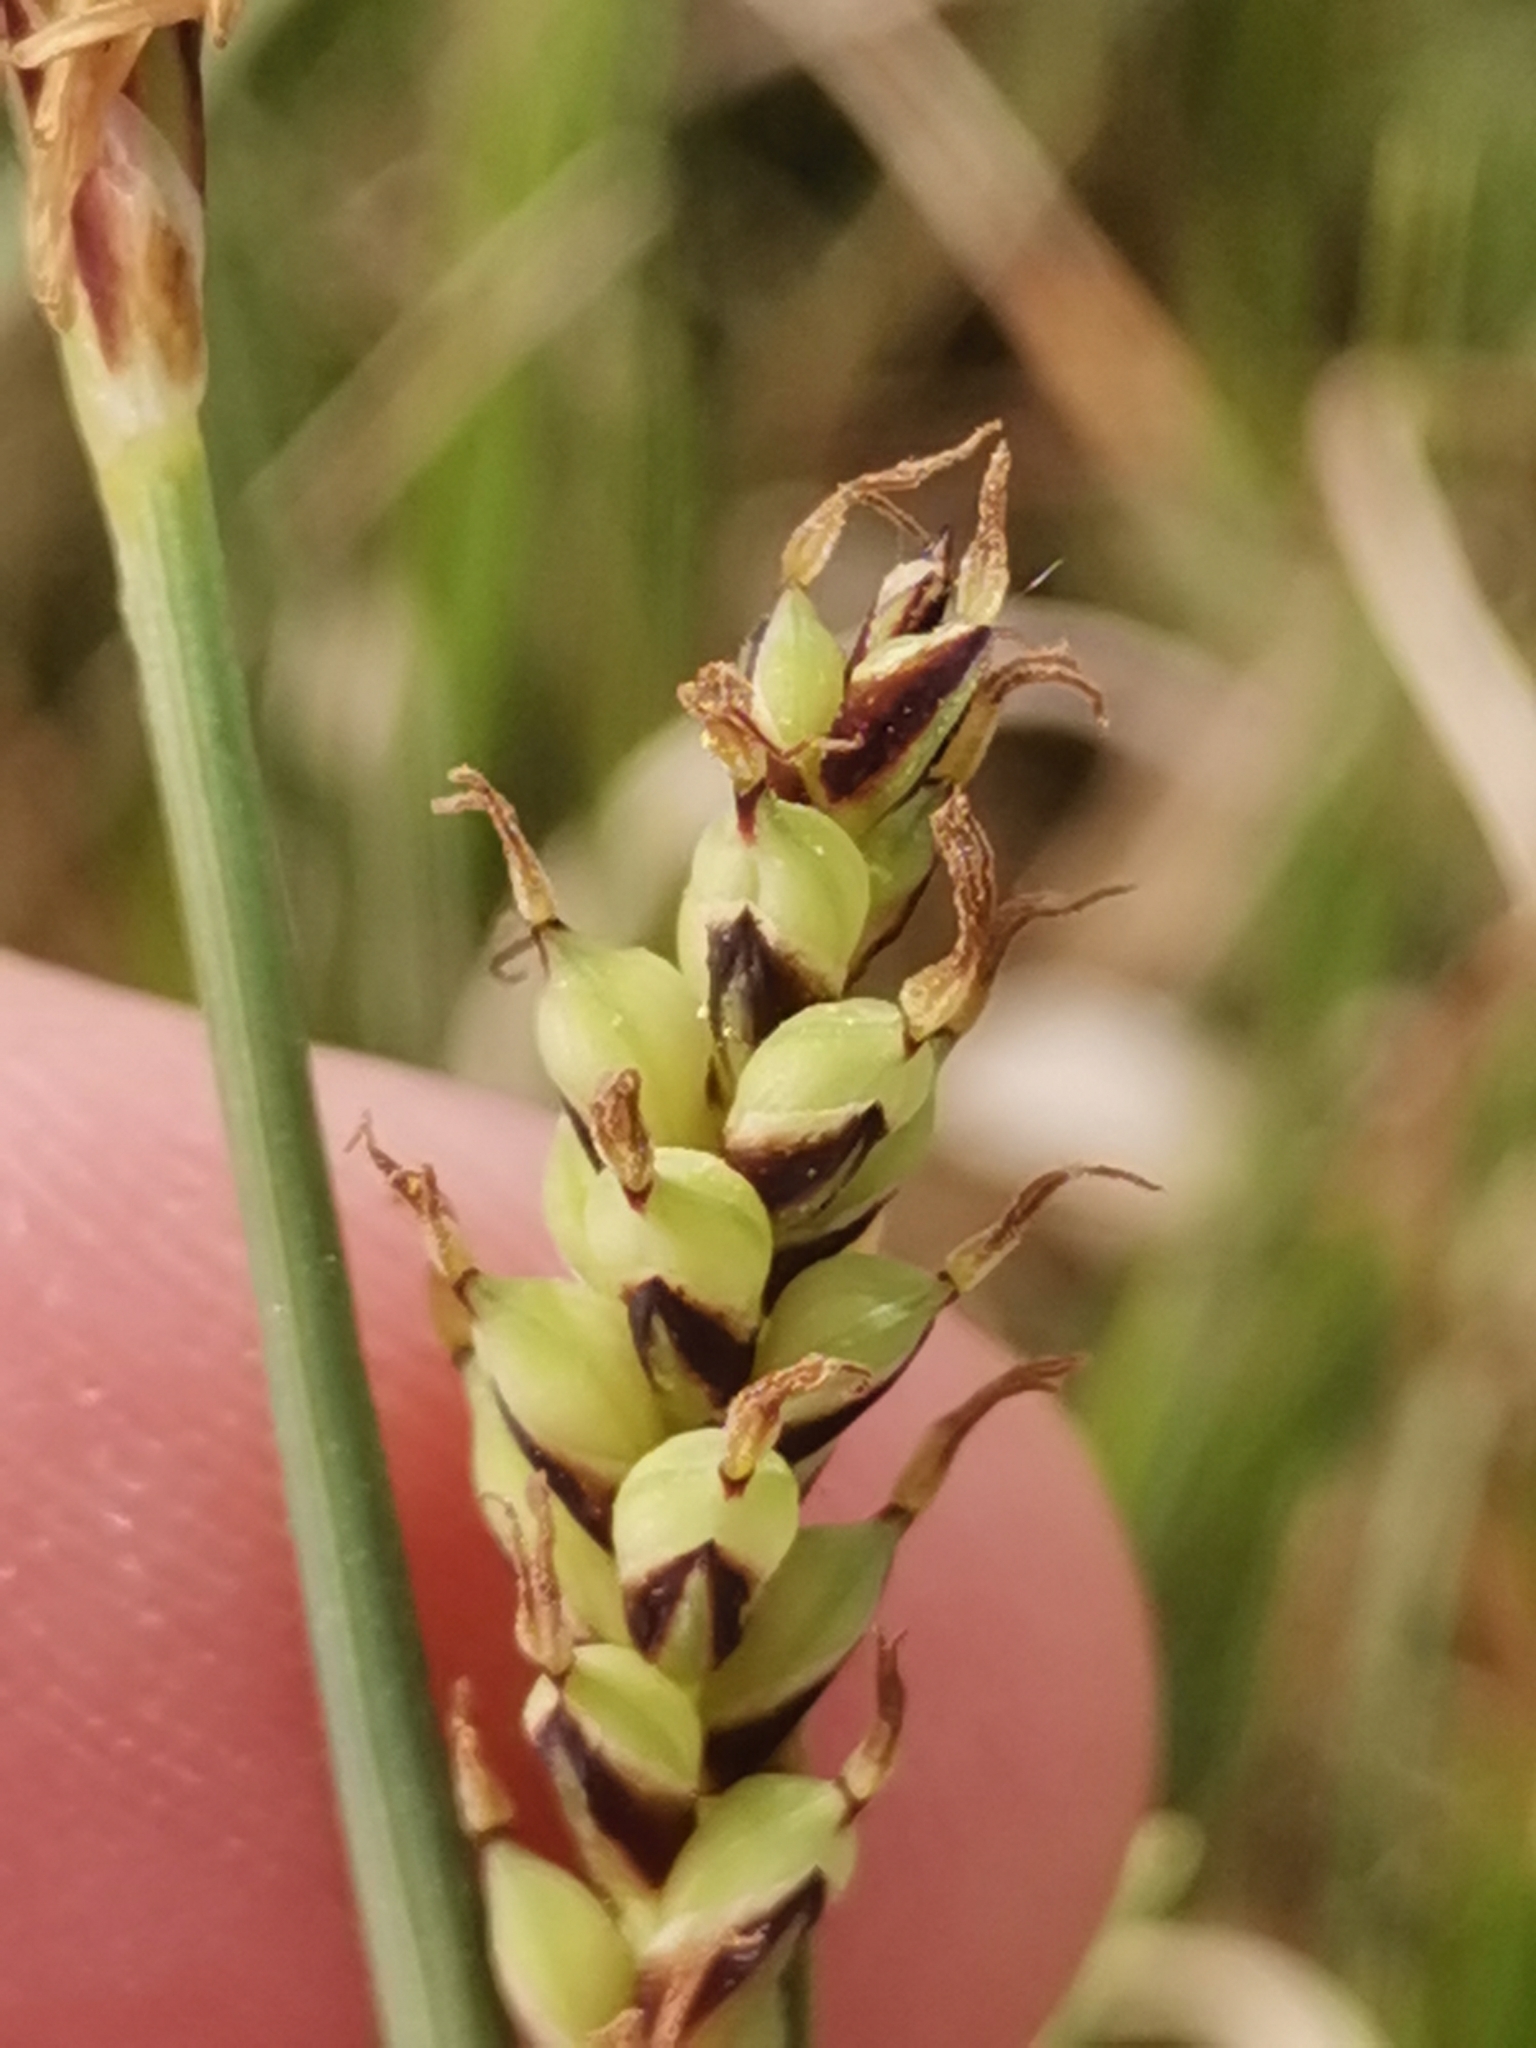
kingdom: Plantae
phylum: Tracheophyta
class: Liliopsida
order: Poales
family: Cyperaceae
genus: Carex
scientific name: Carex panicea
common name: Carnation sedge
